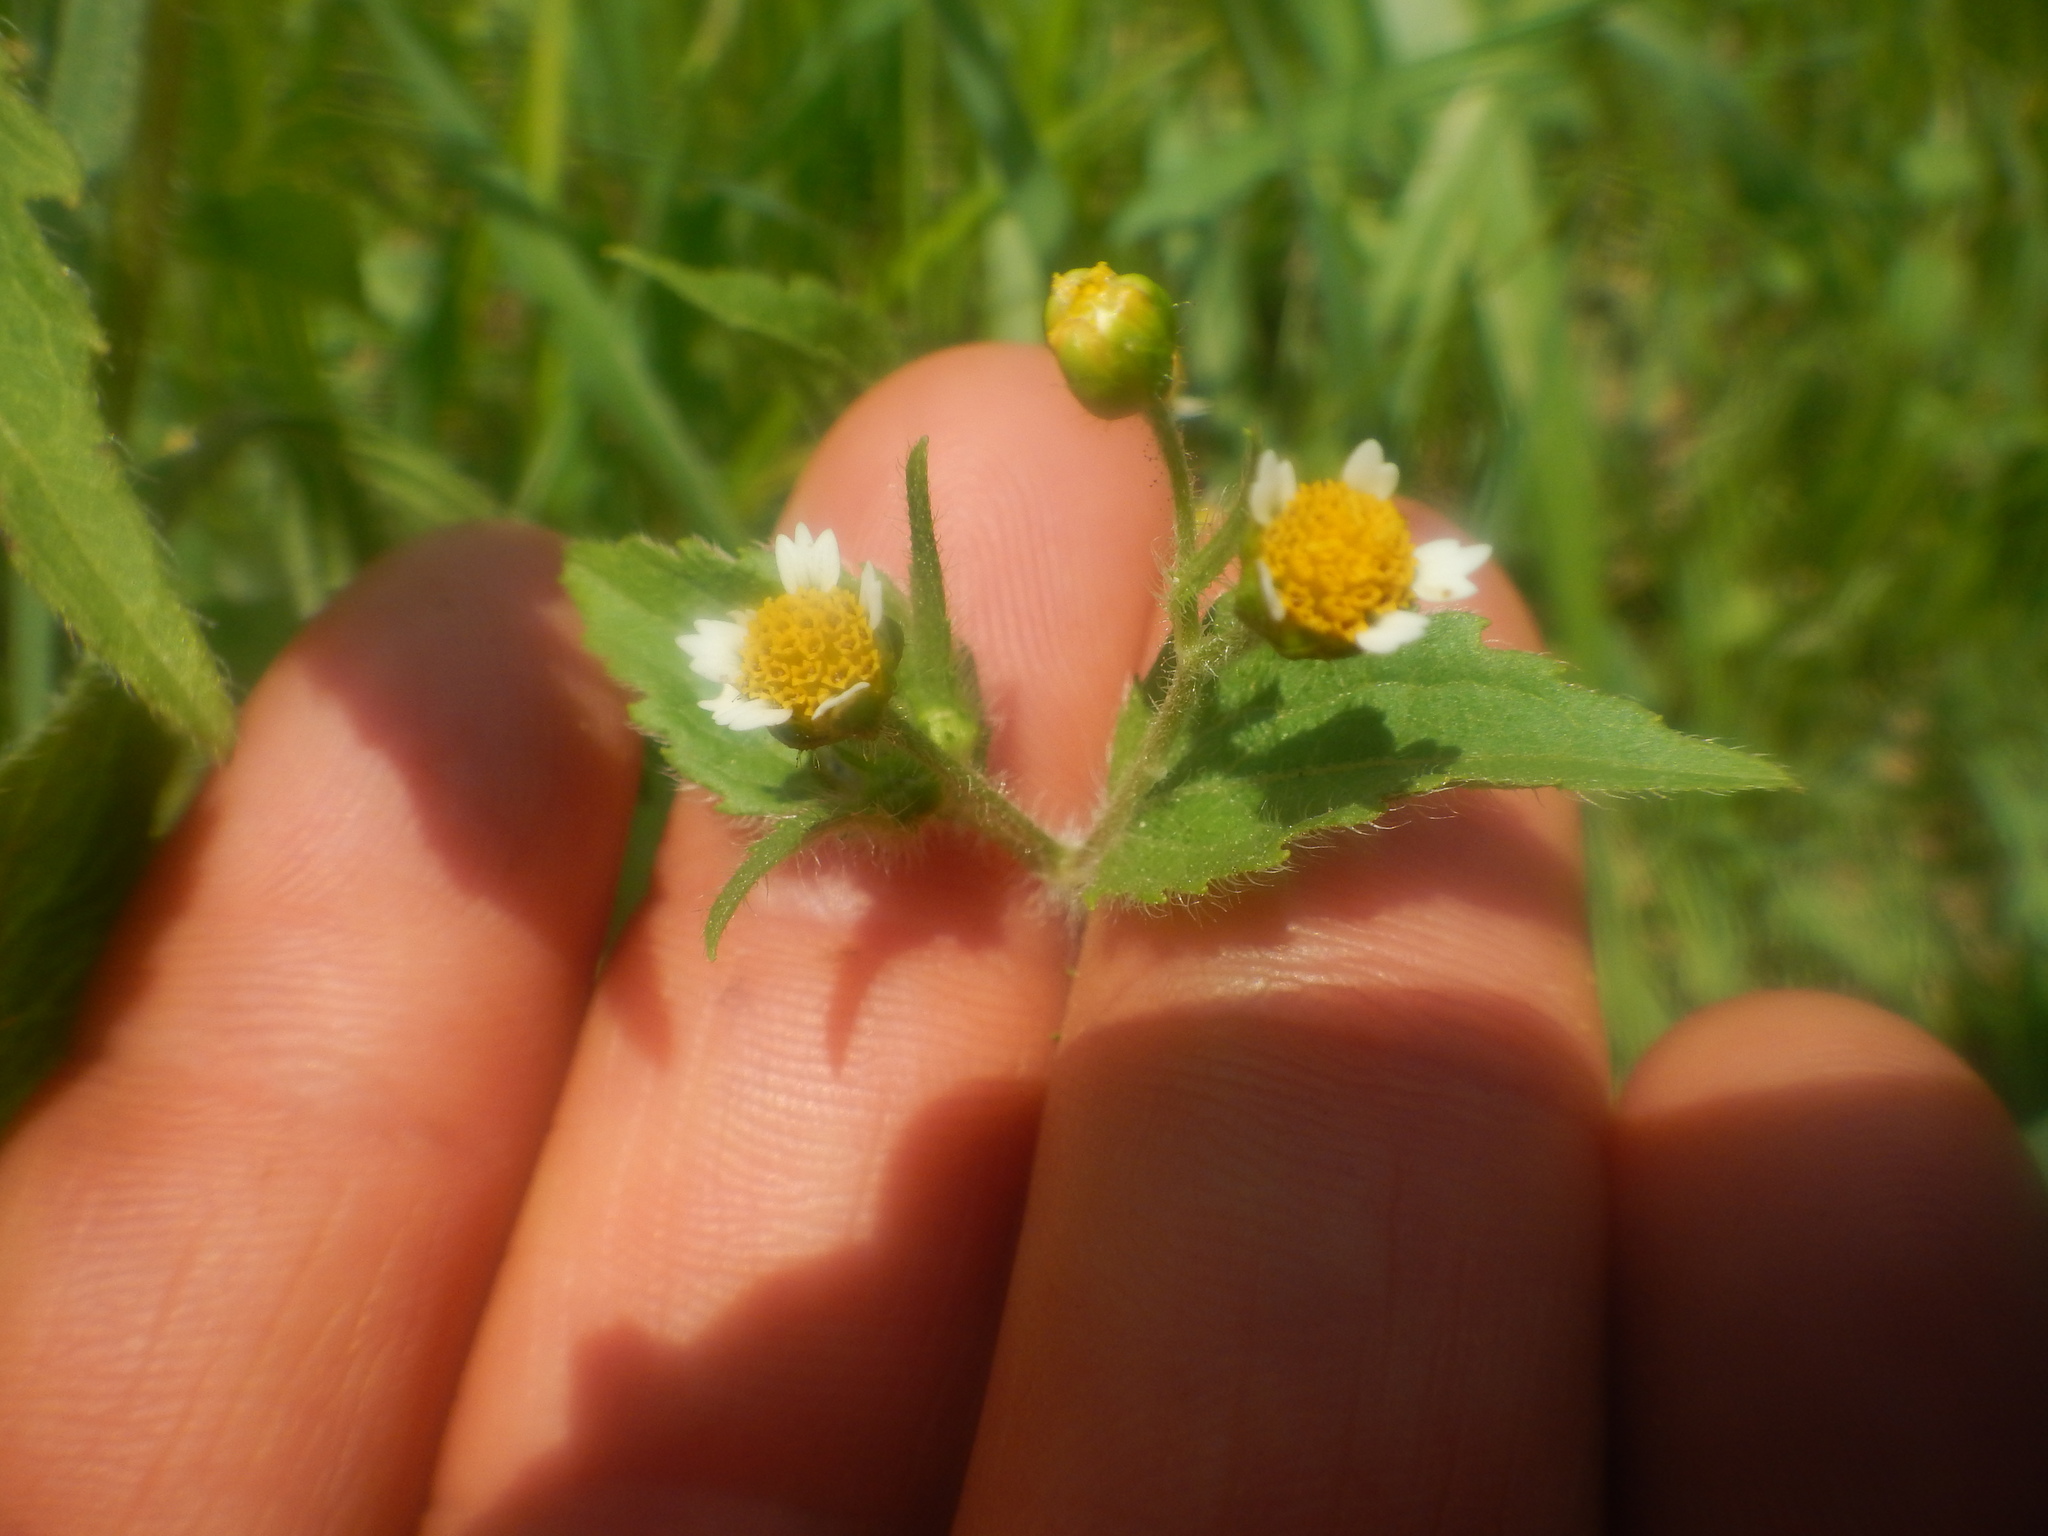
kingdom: Plantae
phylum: Tracheophyta
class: Magnoliopsida
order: Asterales
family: Asteraceae
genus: Galinsoga
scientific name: Galinsoga quadriradiata
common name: Shaggy soldier
